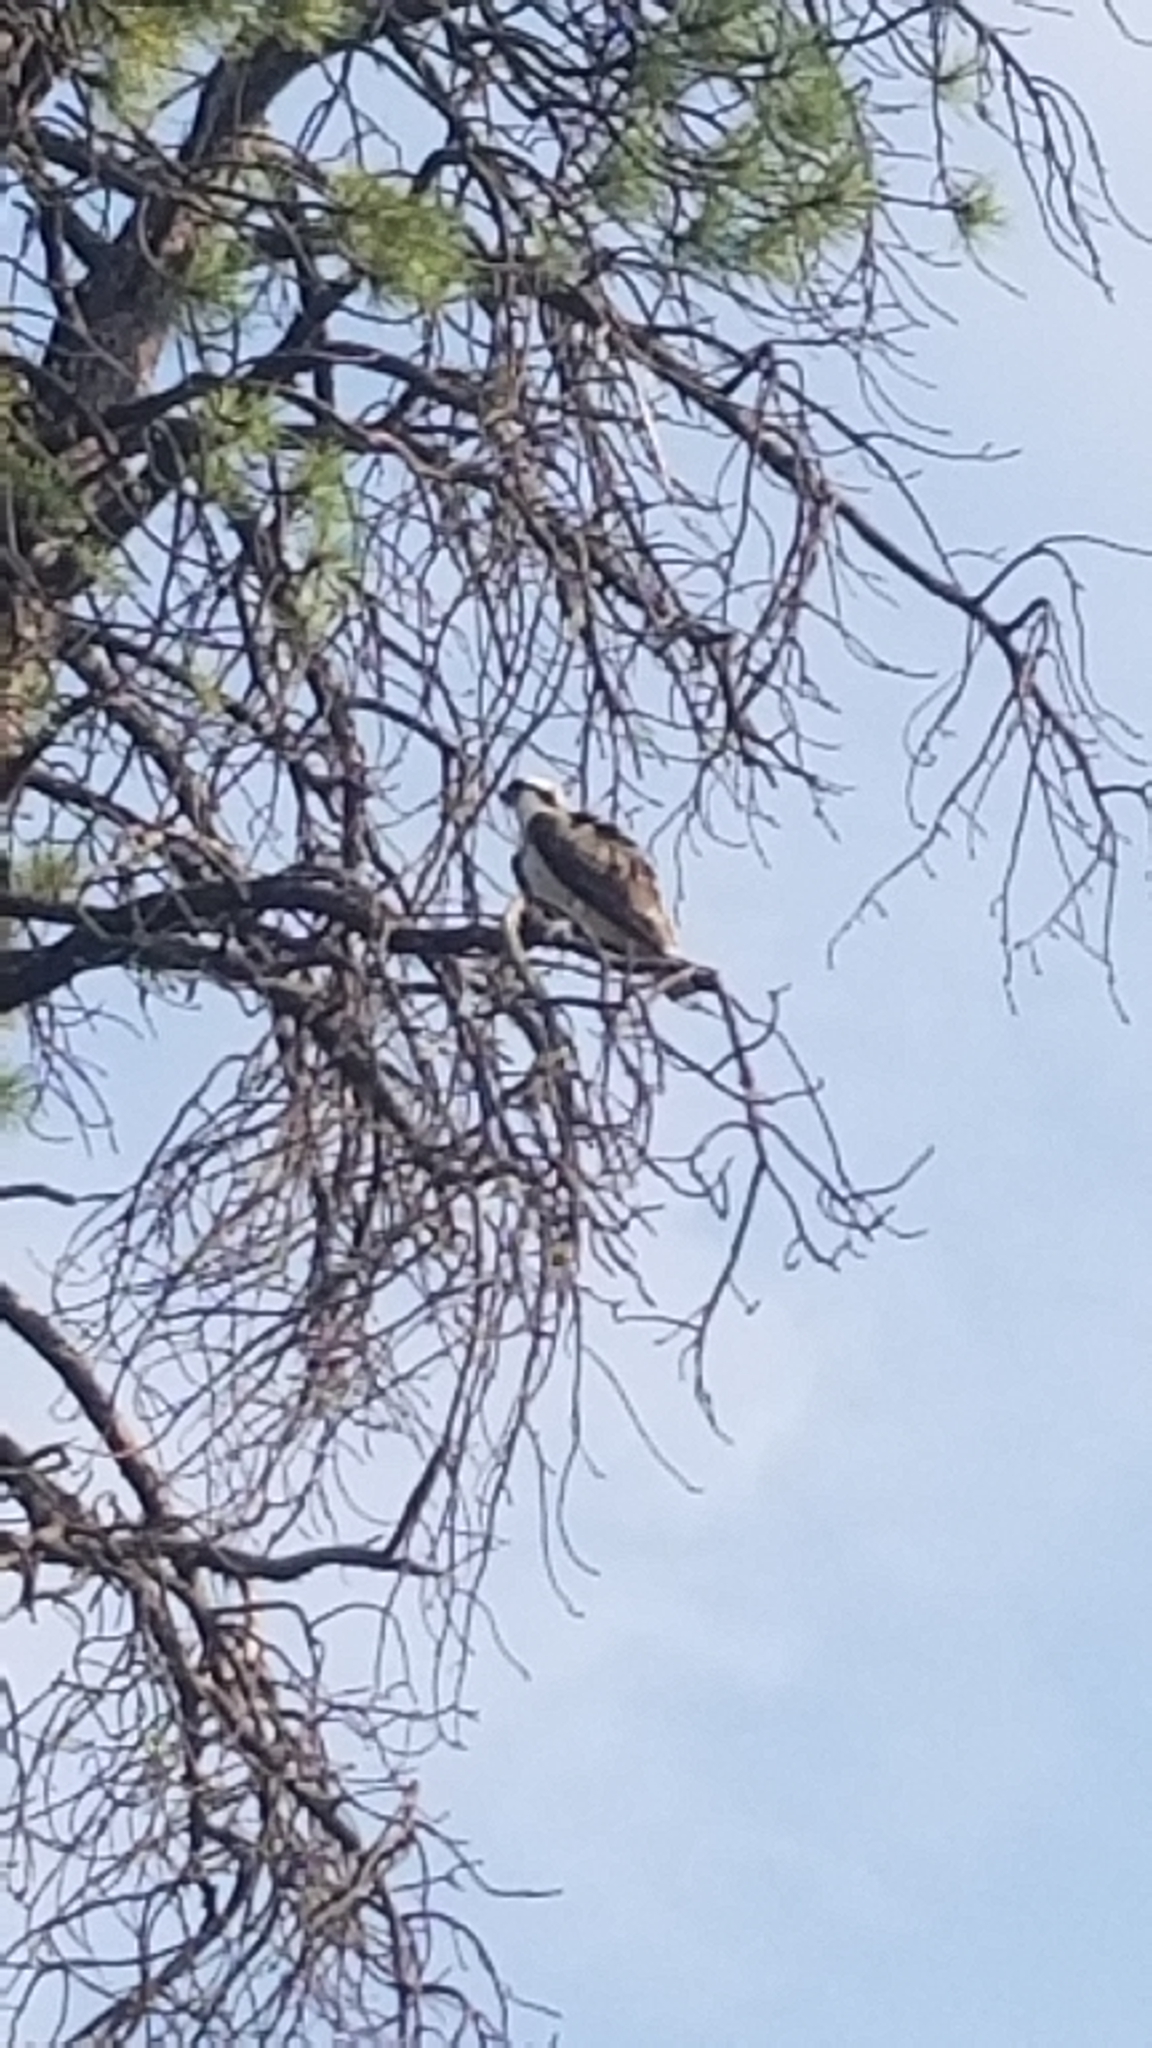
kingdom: Animalia
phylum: Chordata
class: Aves
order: Accipitriformes
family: Pandionidae
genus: Pandion
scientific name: Pandion haliaetus
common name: Osprey
